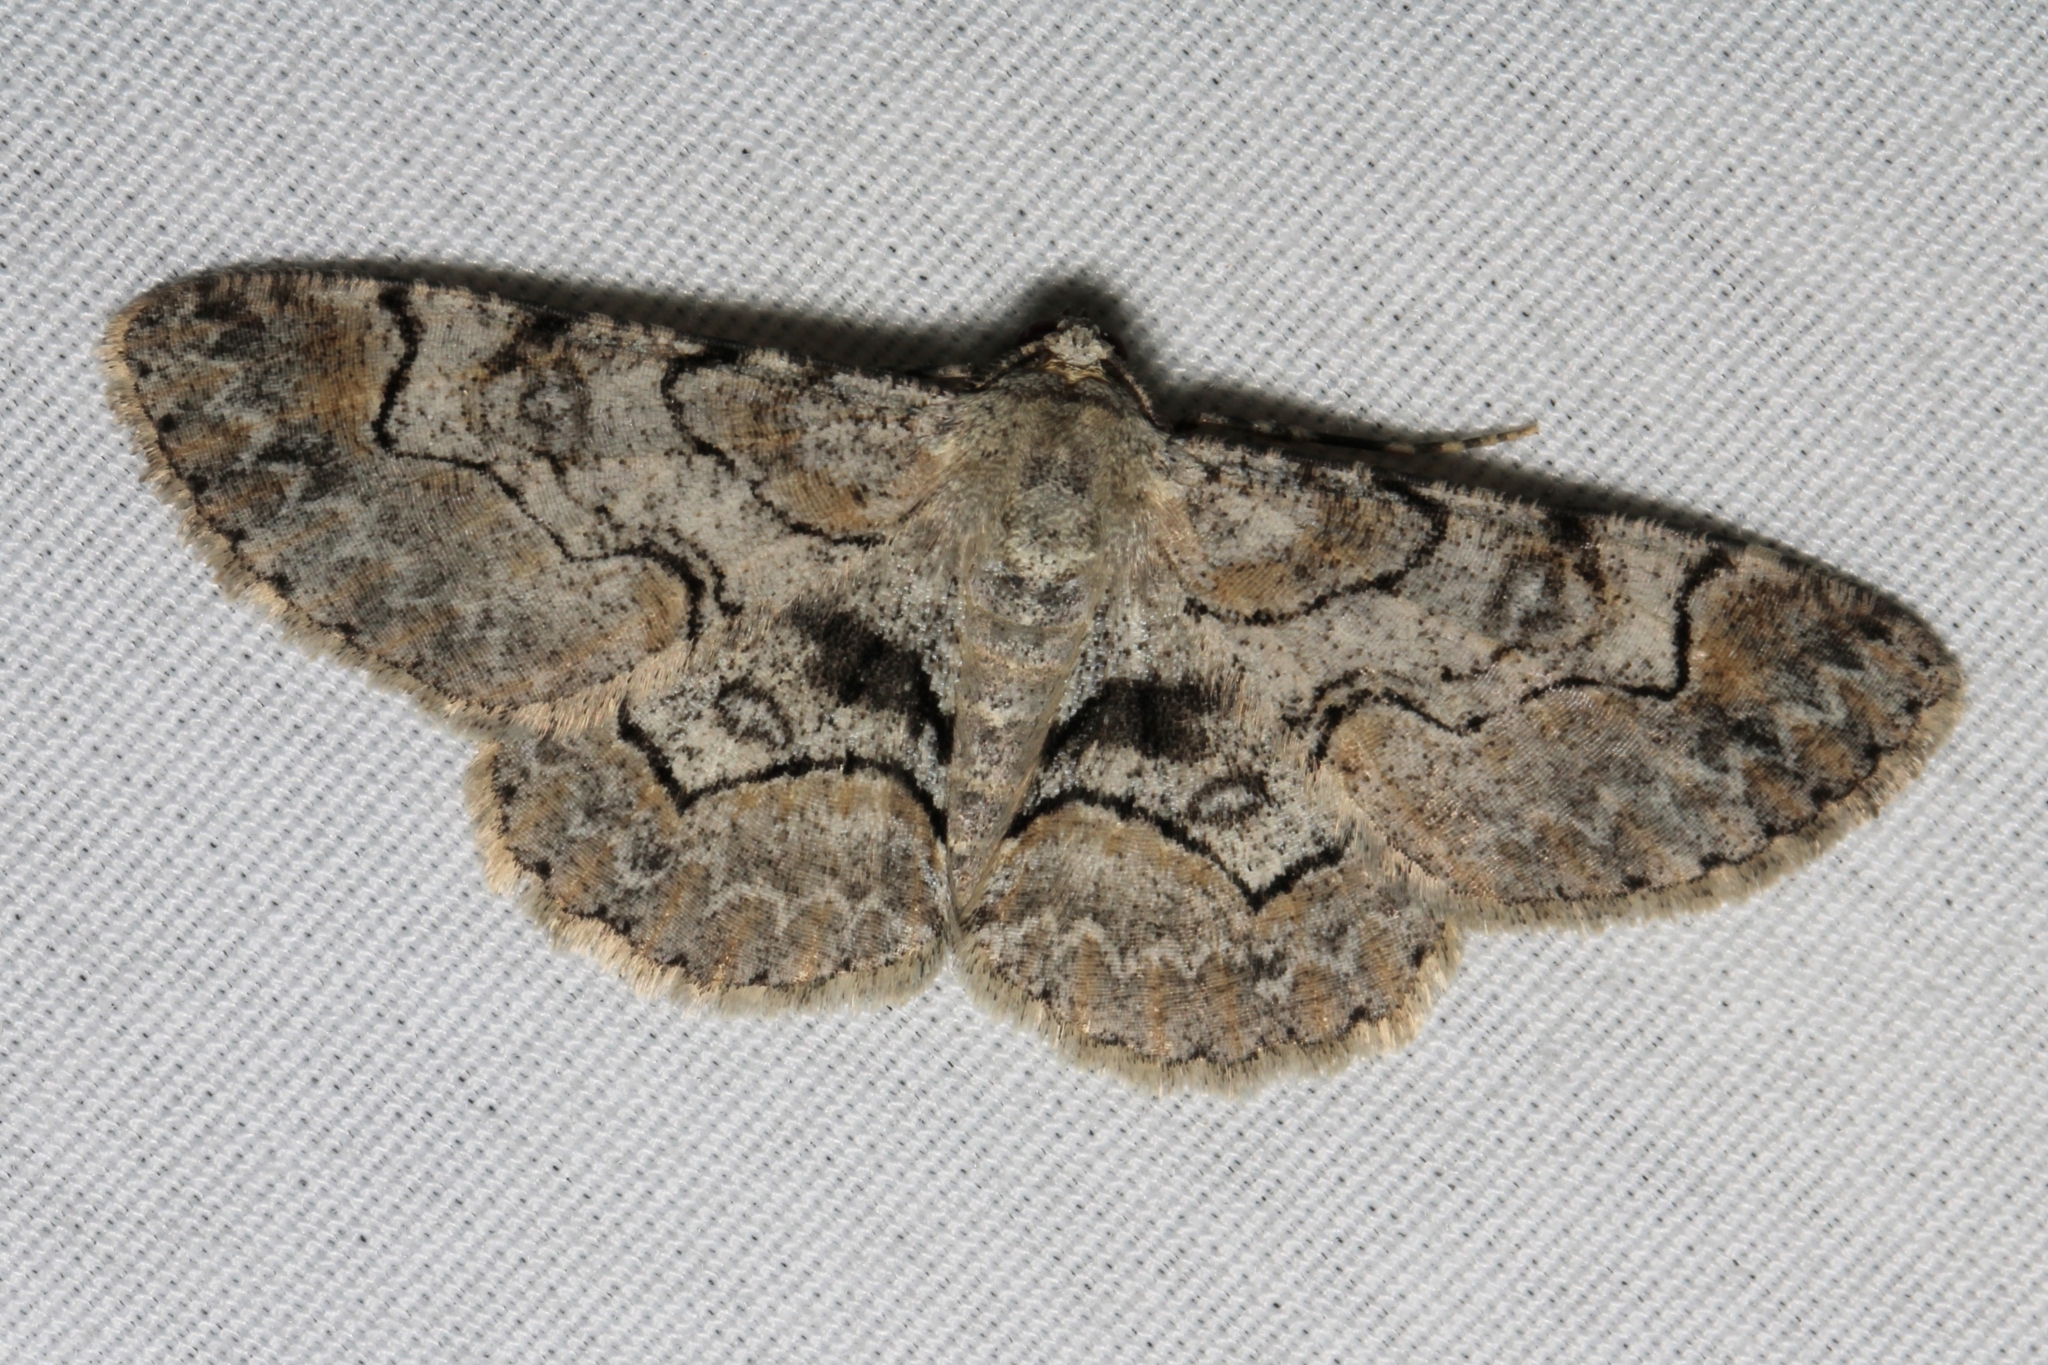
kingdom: Animalia
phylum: Arthropoda
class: Insecta
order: Lepidoptera
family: Geometridae
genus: Iridopsis
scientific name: Iridopsis larvaria
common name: Bent-line gray
